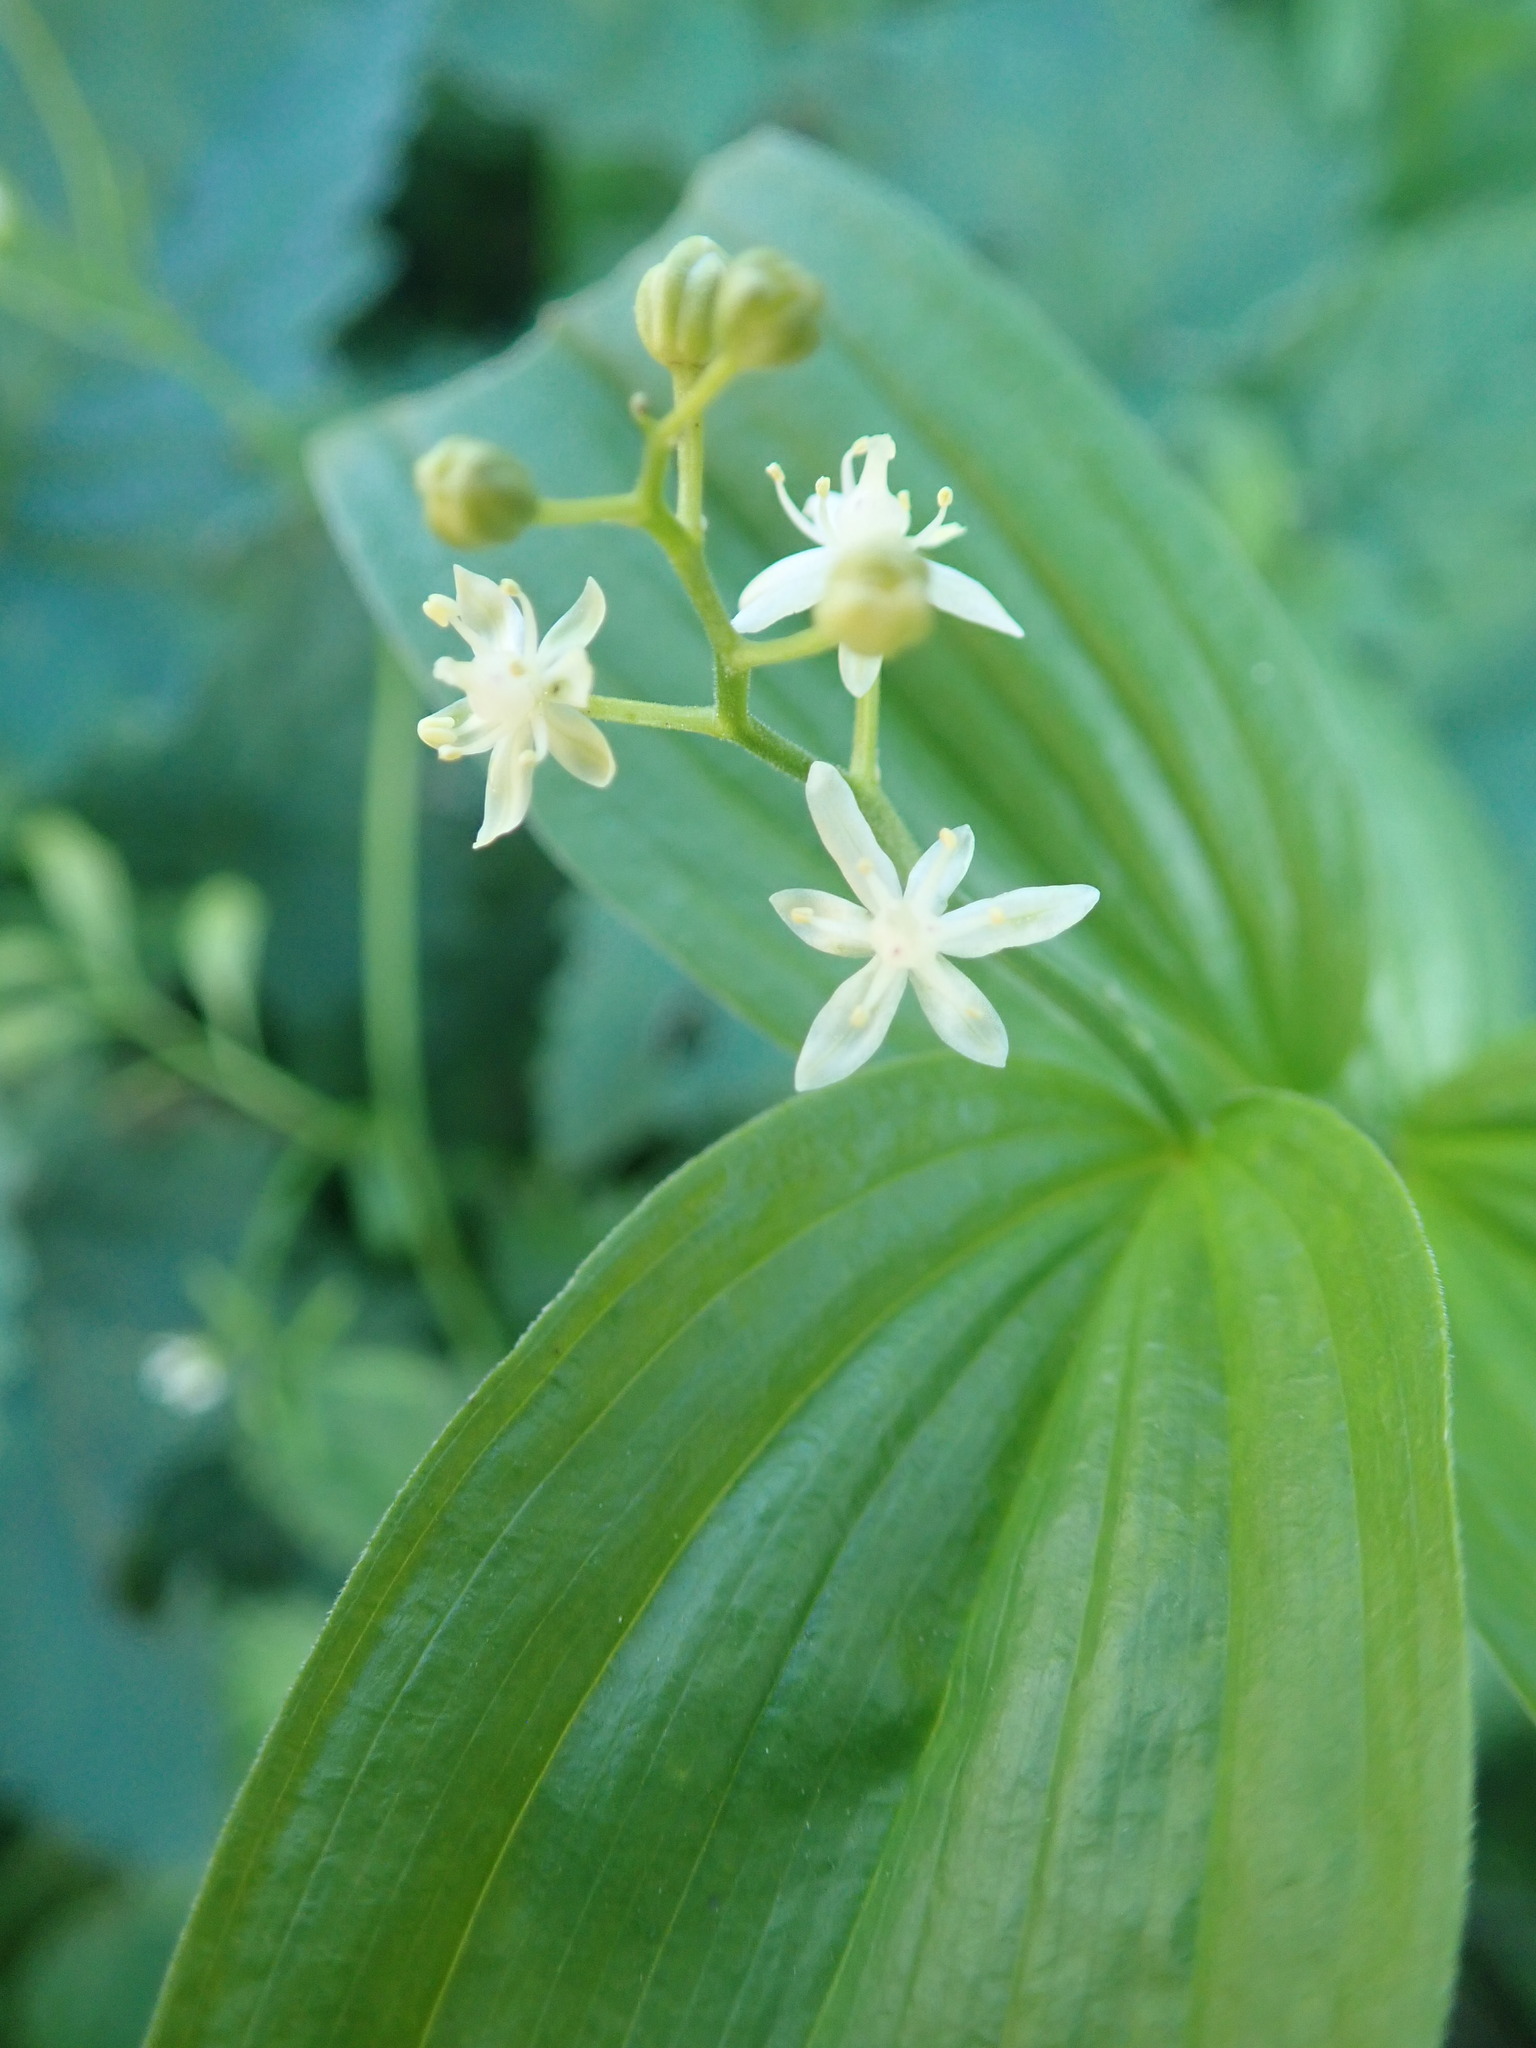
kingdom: Plantae
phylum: Tracheophyta
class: Liliopsida
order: Asparagales
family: Asparagaceae
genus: Maianthemum
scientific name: Maianthemum stellatum
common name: Little false solomon's seal
